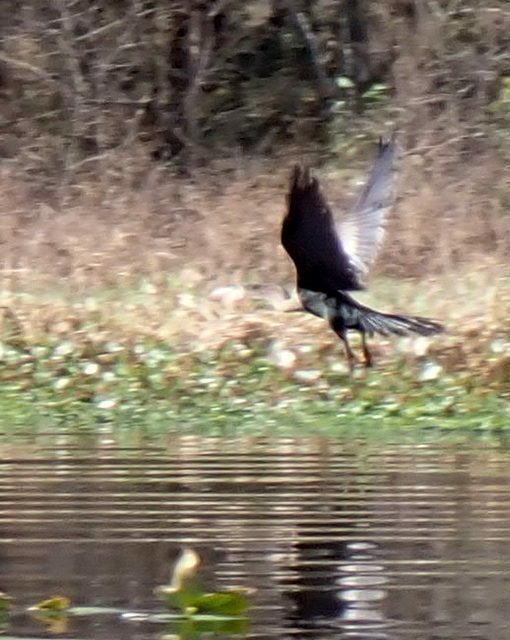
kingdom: Animalia
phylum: Chordata
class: Aves
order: Suliformes
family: Anhingidae
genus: Anhinga
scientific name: Anhinga anhinga
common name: Anhinga
